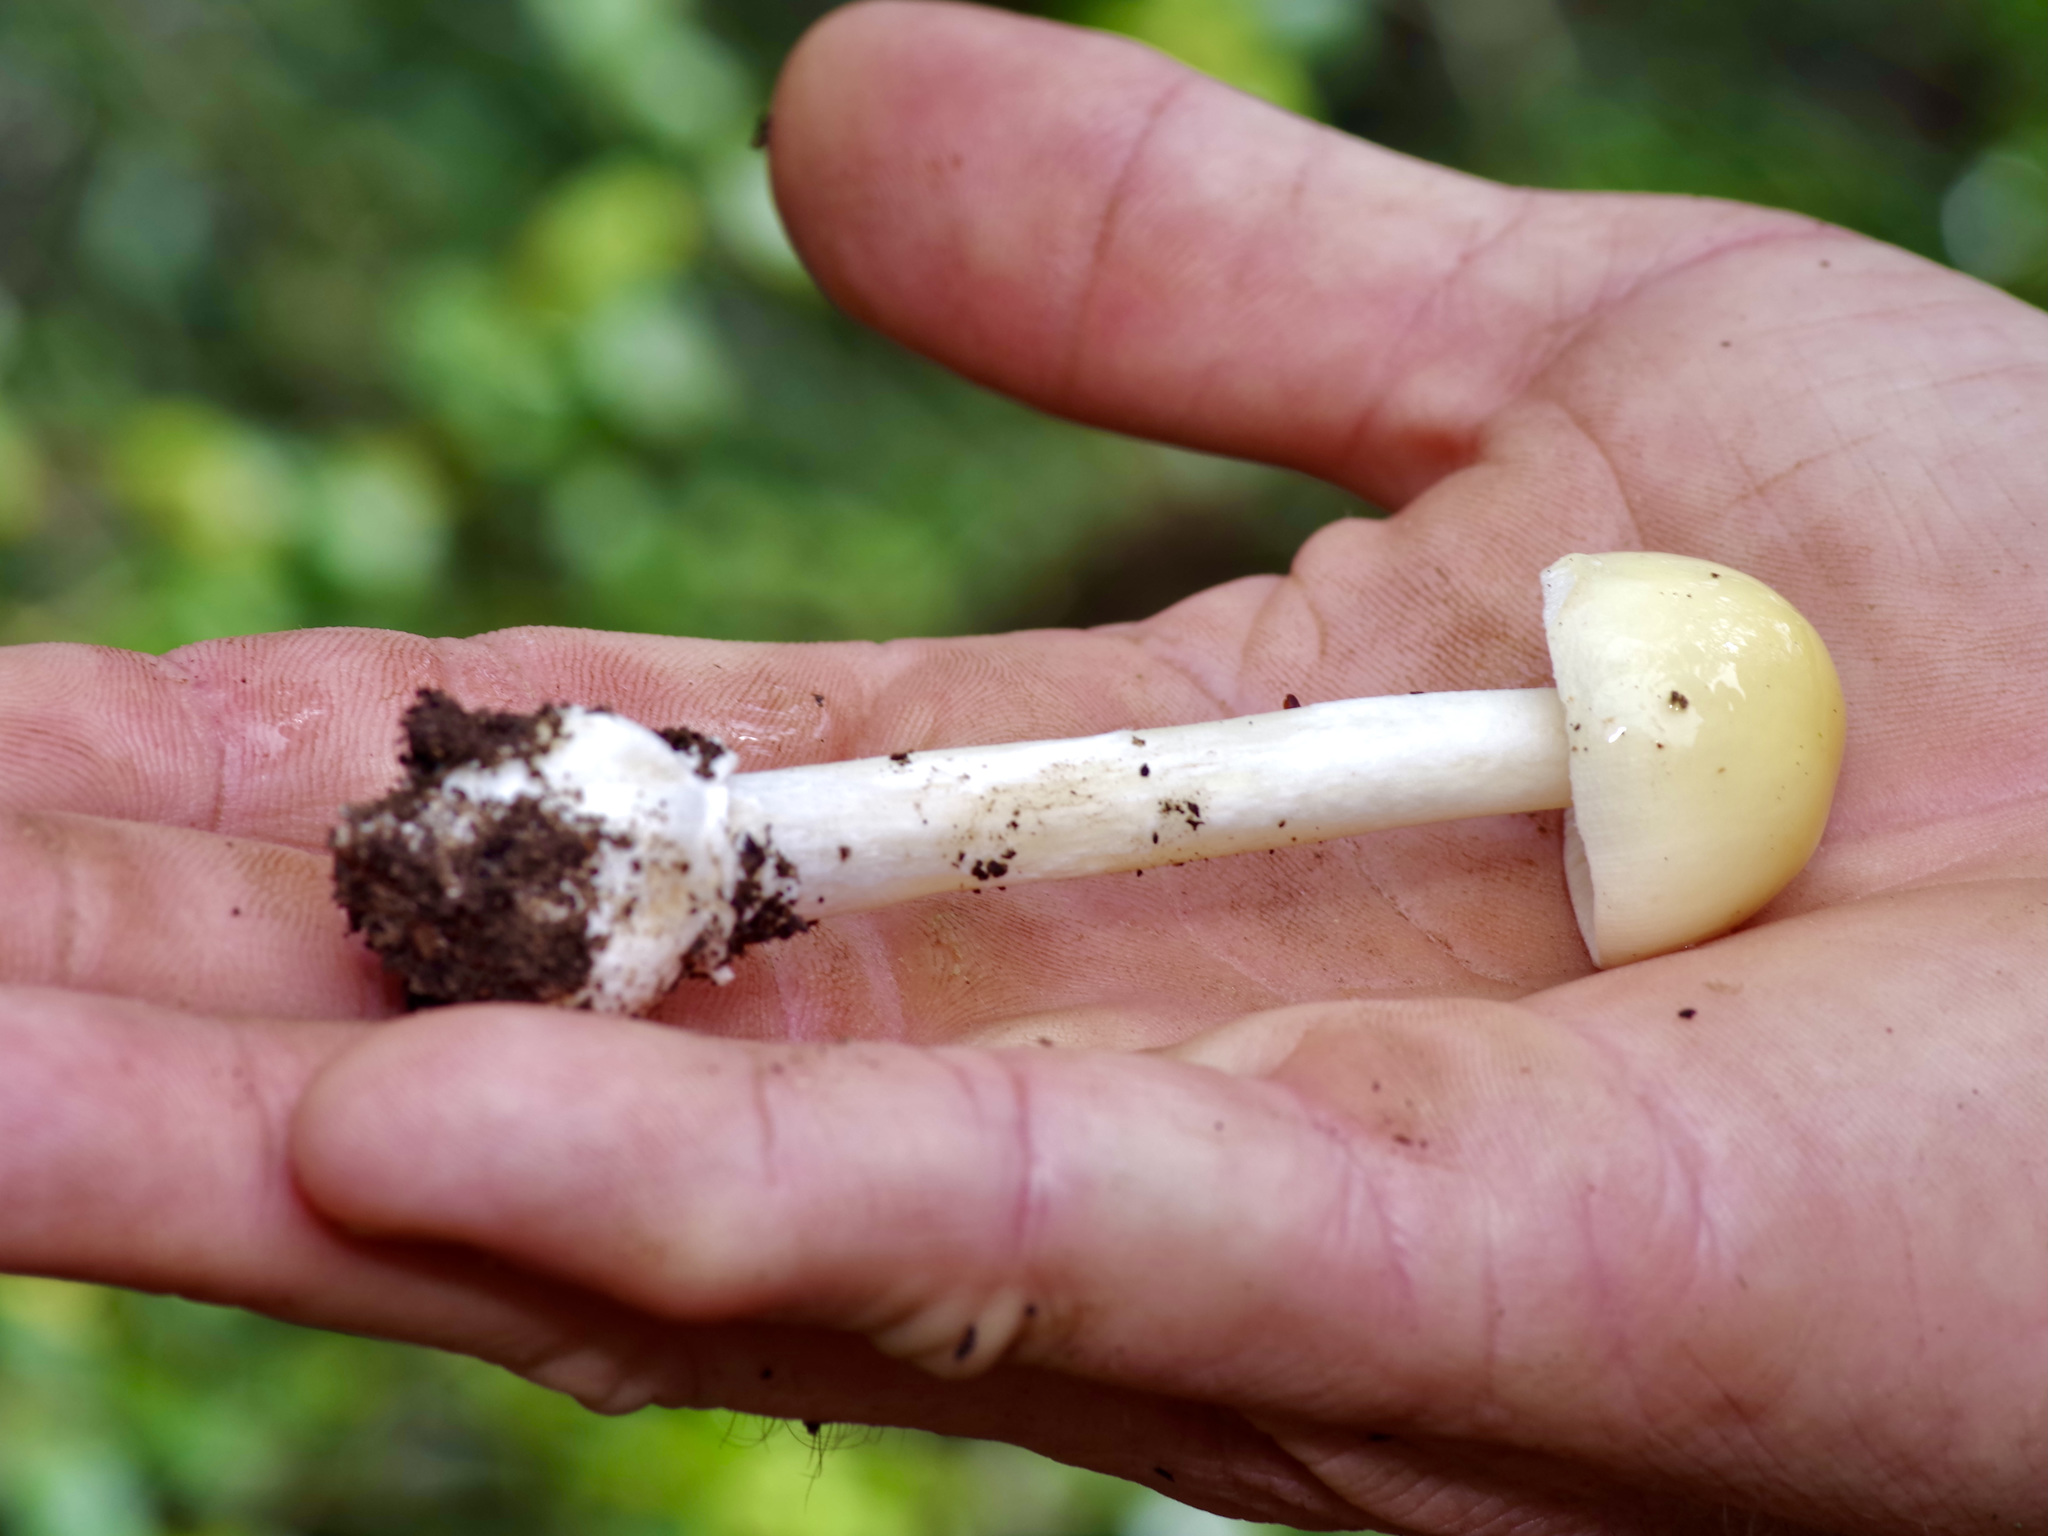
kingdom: Fungi
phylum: Basidiomycota
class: Agaricomycetes
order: Agaricales
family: Amanitaceae
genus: Amanita
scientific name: Amanita agglutinata
